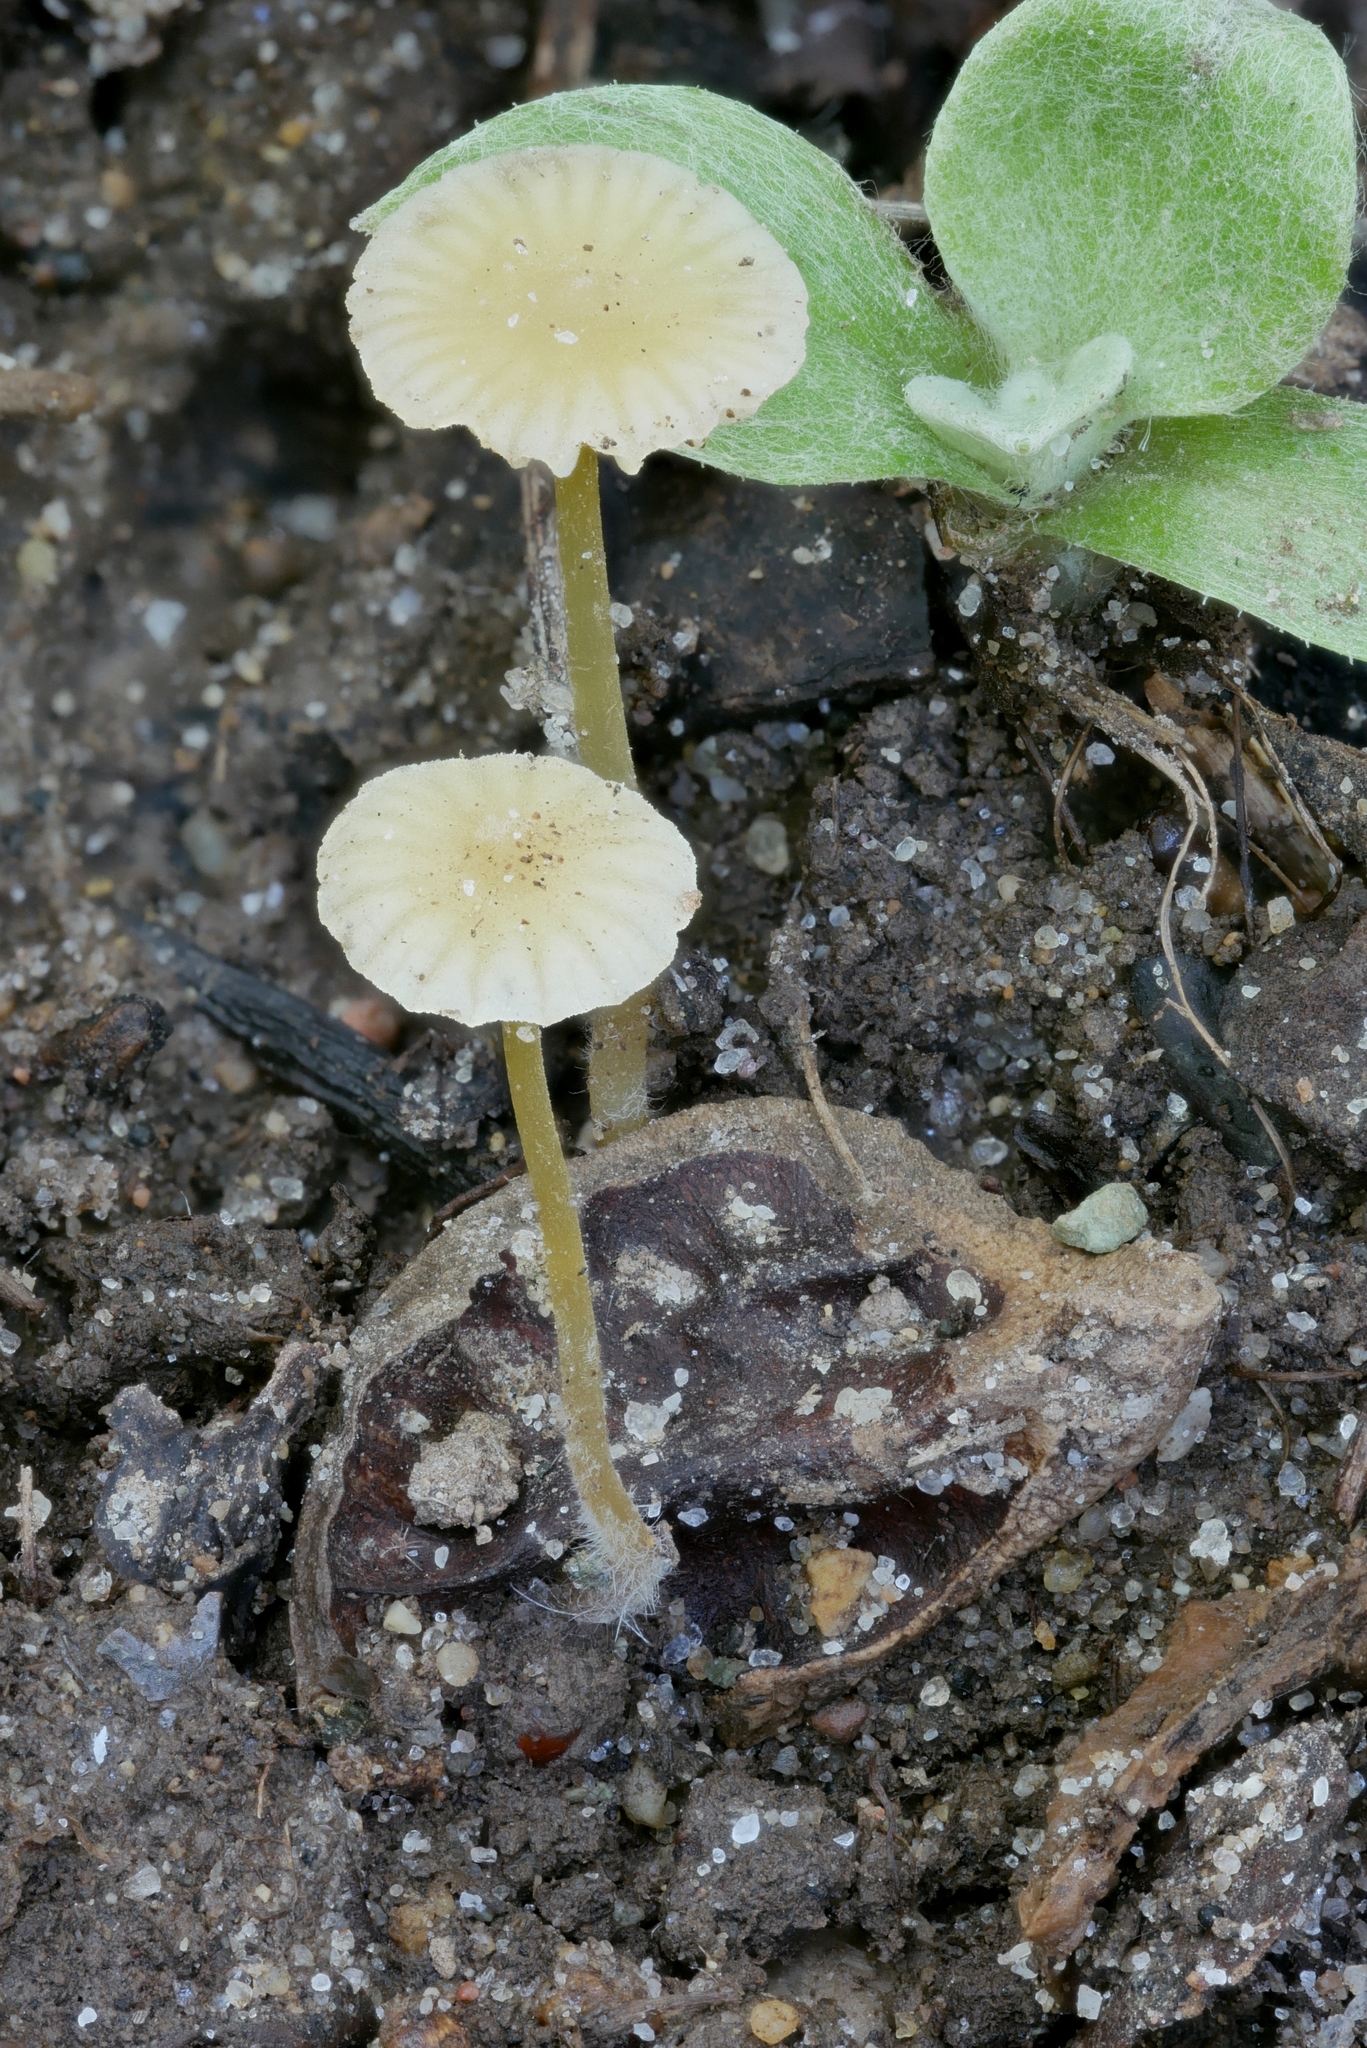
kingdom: Fungi
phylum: Basidiomycota
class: Agaricomycetes
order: Agaricales
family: Mycenaceae
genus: Mycena
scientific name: Mycena crocea
